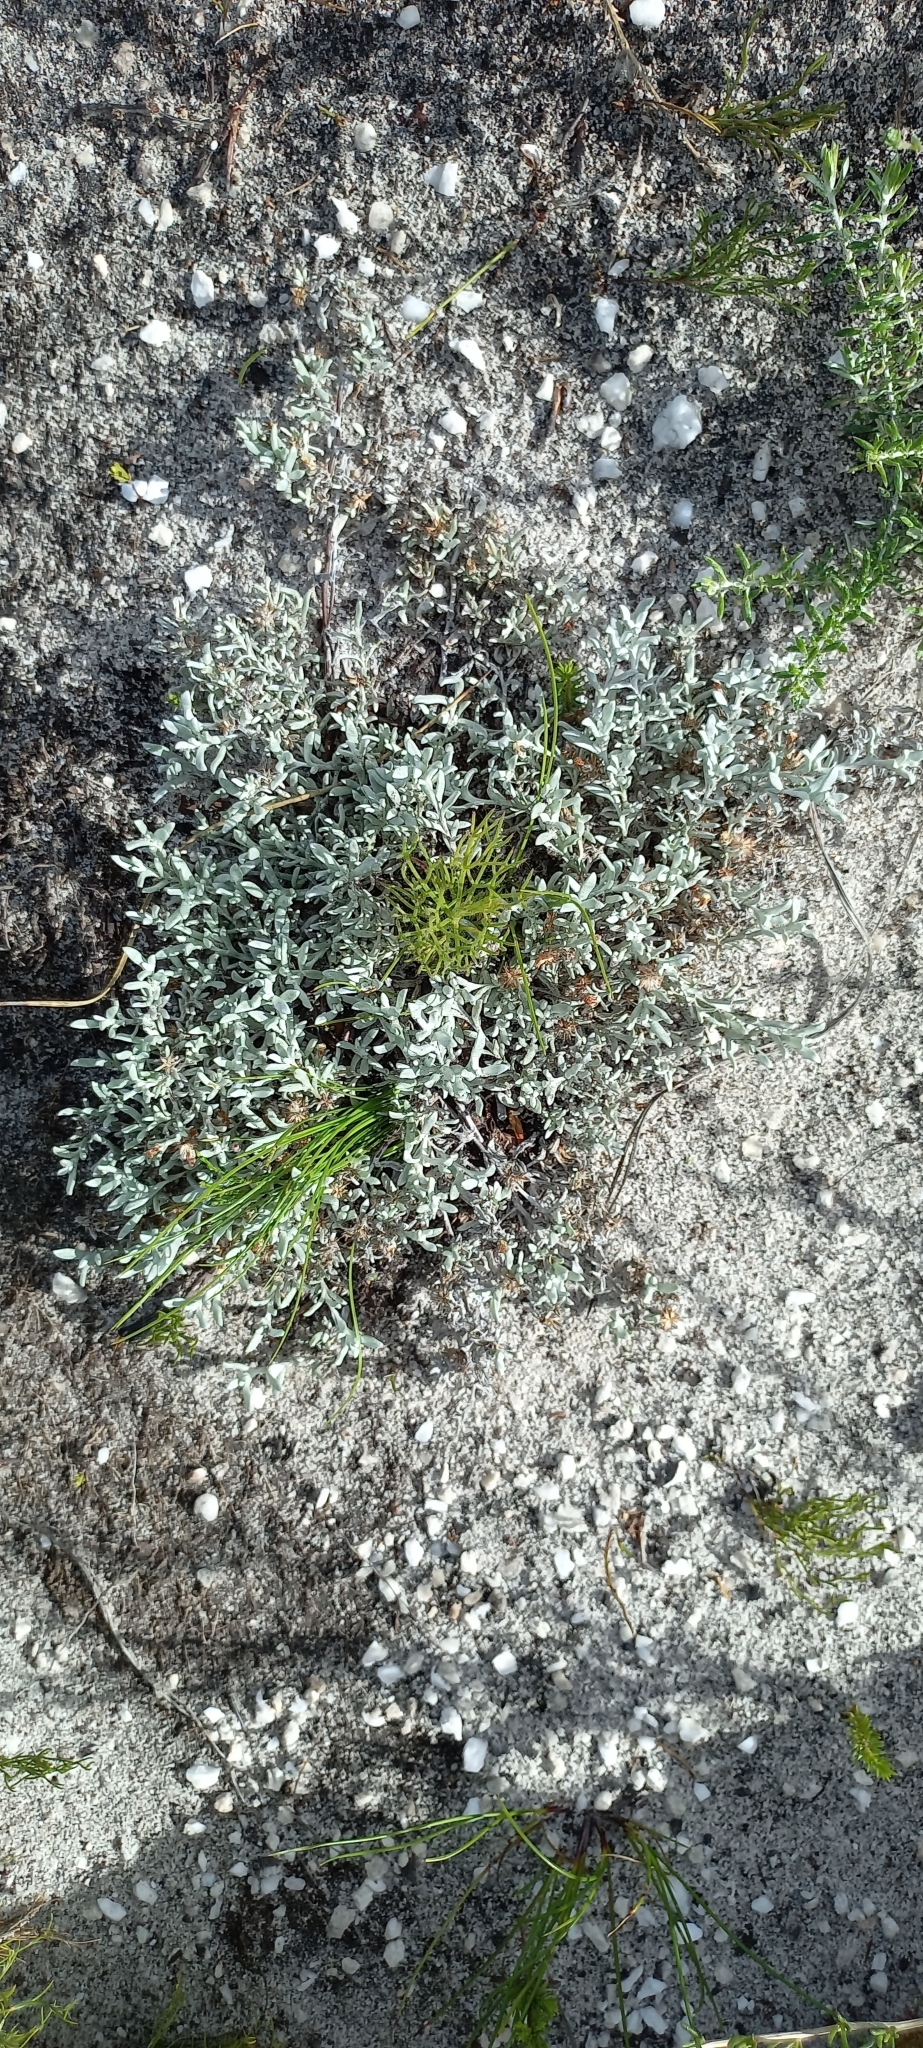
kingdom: Plantae
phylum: Tracheophyta
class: Magnoliopsida
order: Asterales
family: Asteraceae
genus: Helichrysum
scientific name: Helichrysum litorale
